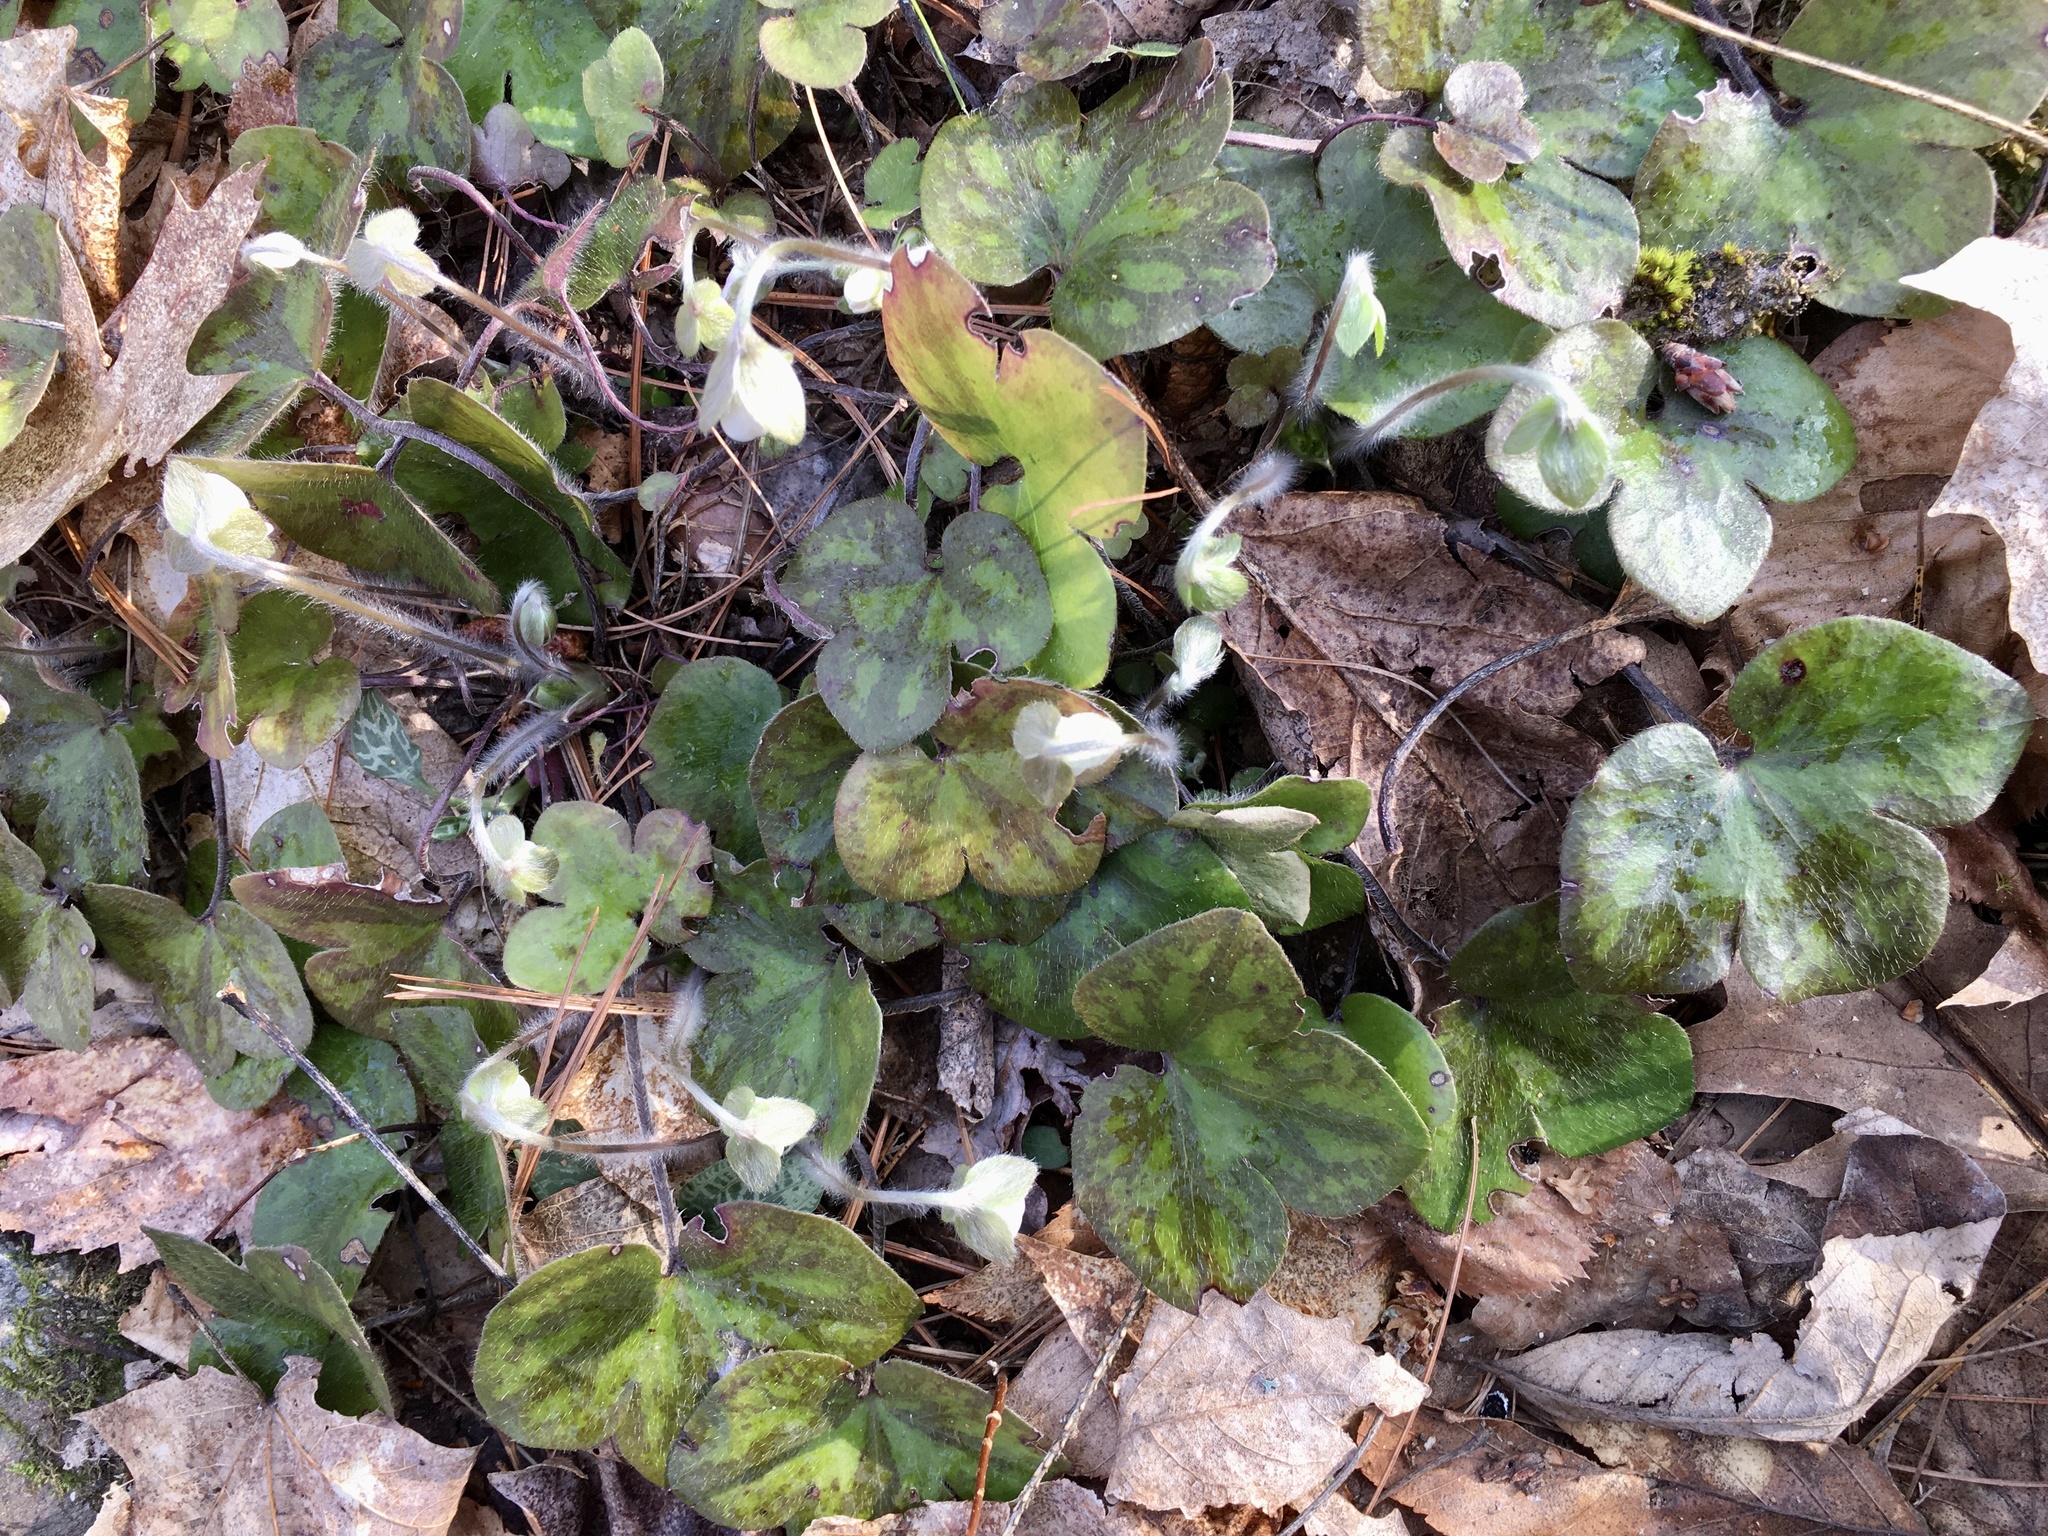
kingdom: Plantae
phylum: Tracheophyta
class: Magnoliopsida
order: Ranunculales
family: Ranunculaceae
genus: Hepatica
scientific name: Hepatica americana
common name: American hepatica
